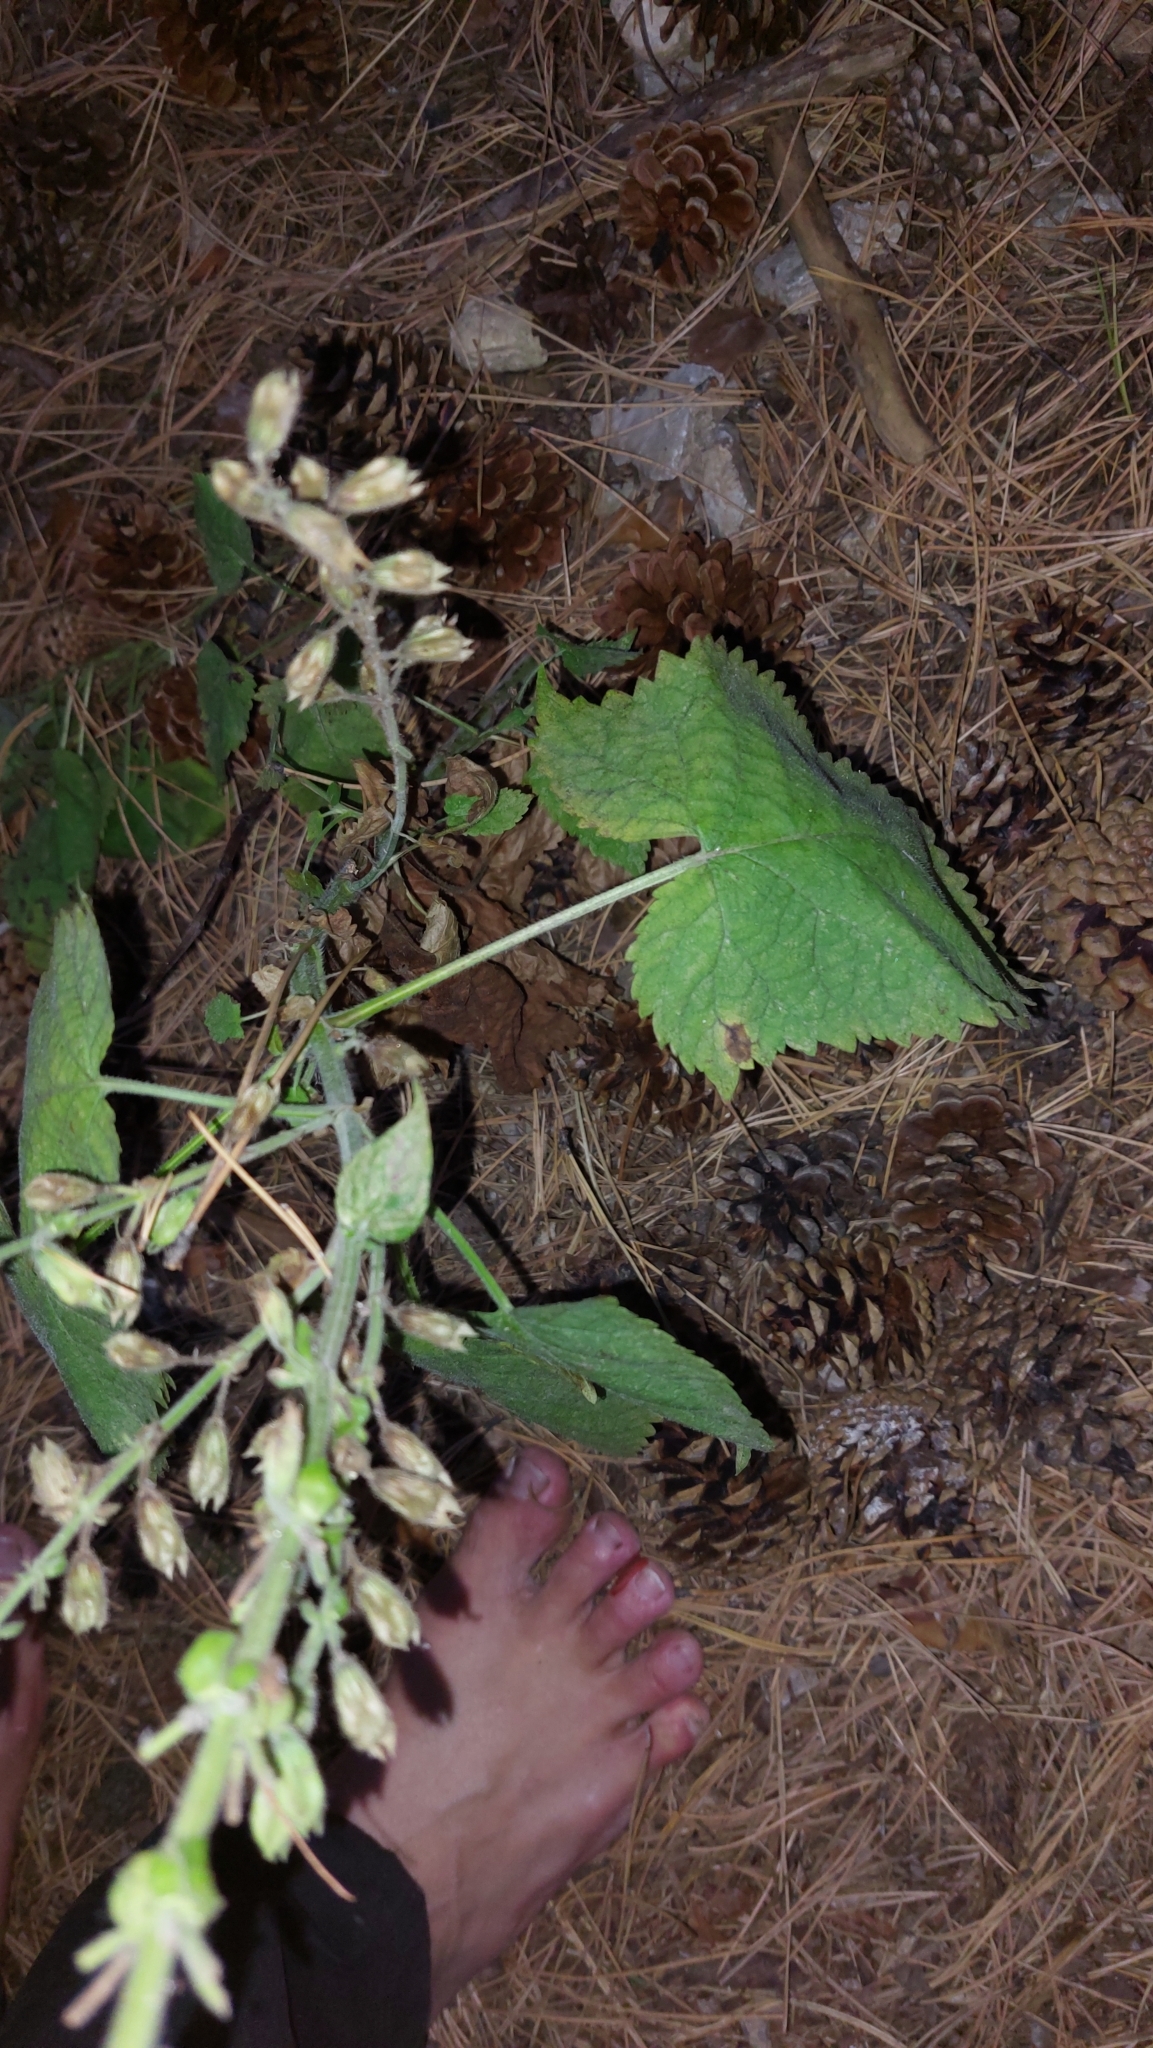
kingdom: Plantae
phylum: Tracheophyta
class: Magnoliopsida
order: Lamiales
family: Lamiaceae
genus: Salvia
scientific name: Salvia glutinosa
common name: Sticky clary
